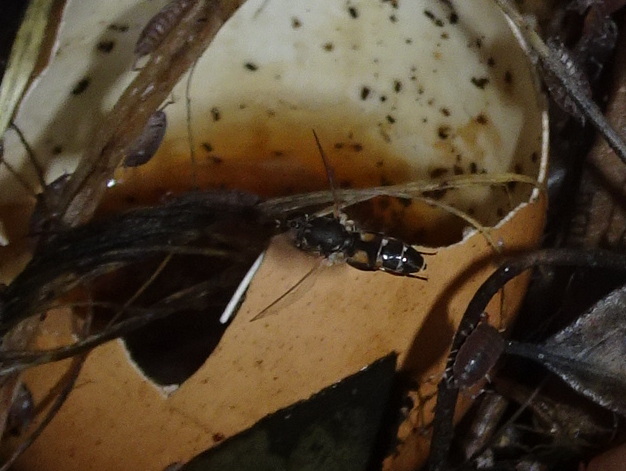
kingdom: Animalia
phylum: Arthropoda
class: Insecta
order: Diptera
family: Syrphidae
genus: Syritta
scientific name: Syritta pipiens
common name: Hover fly
